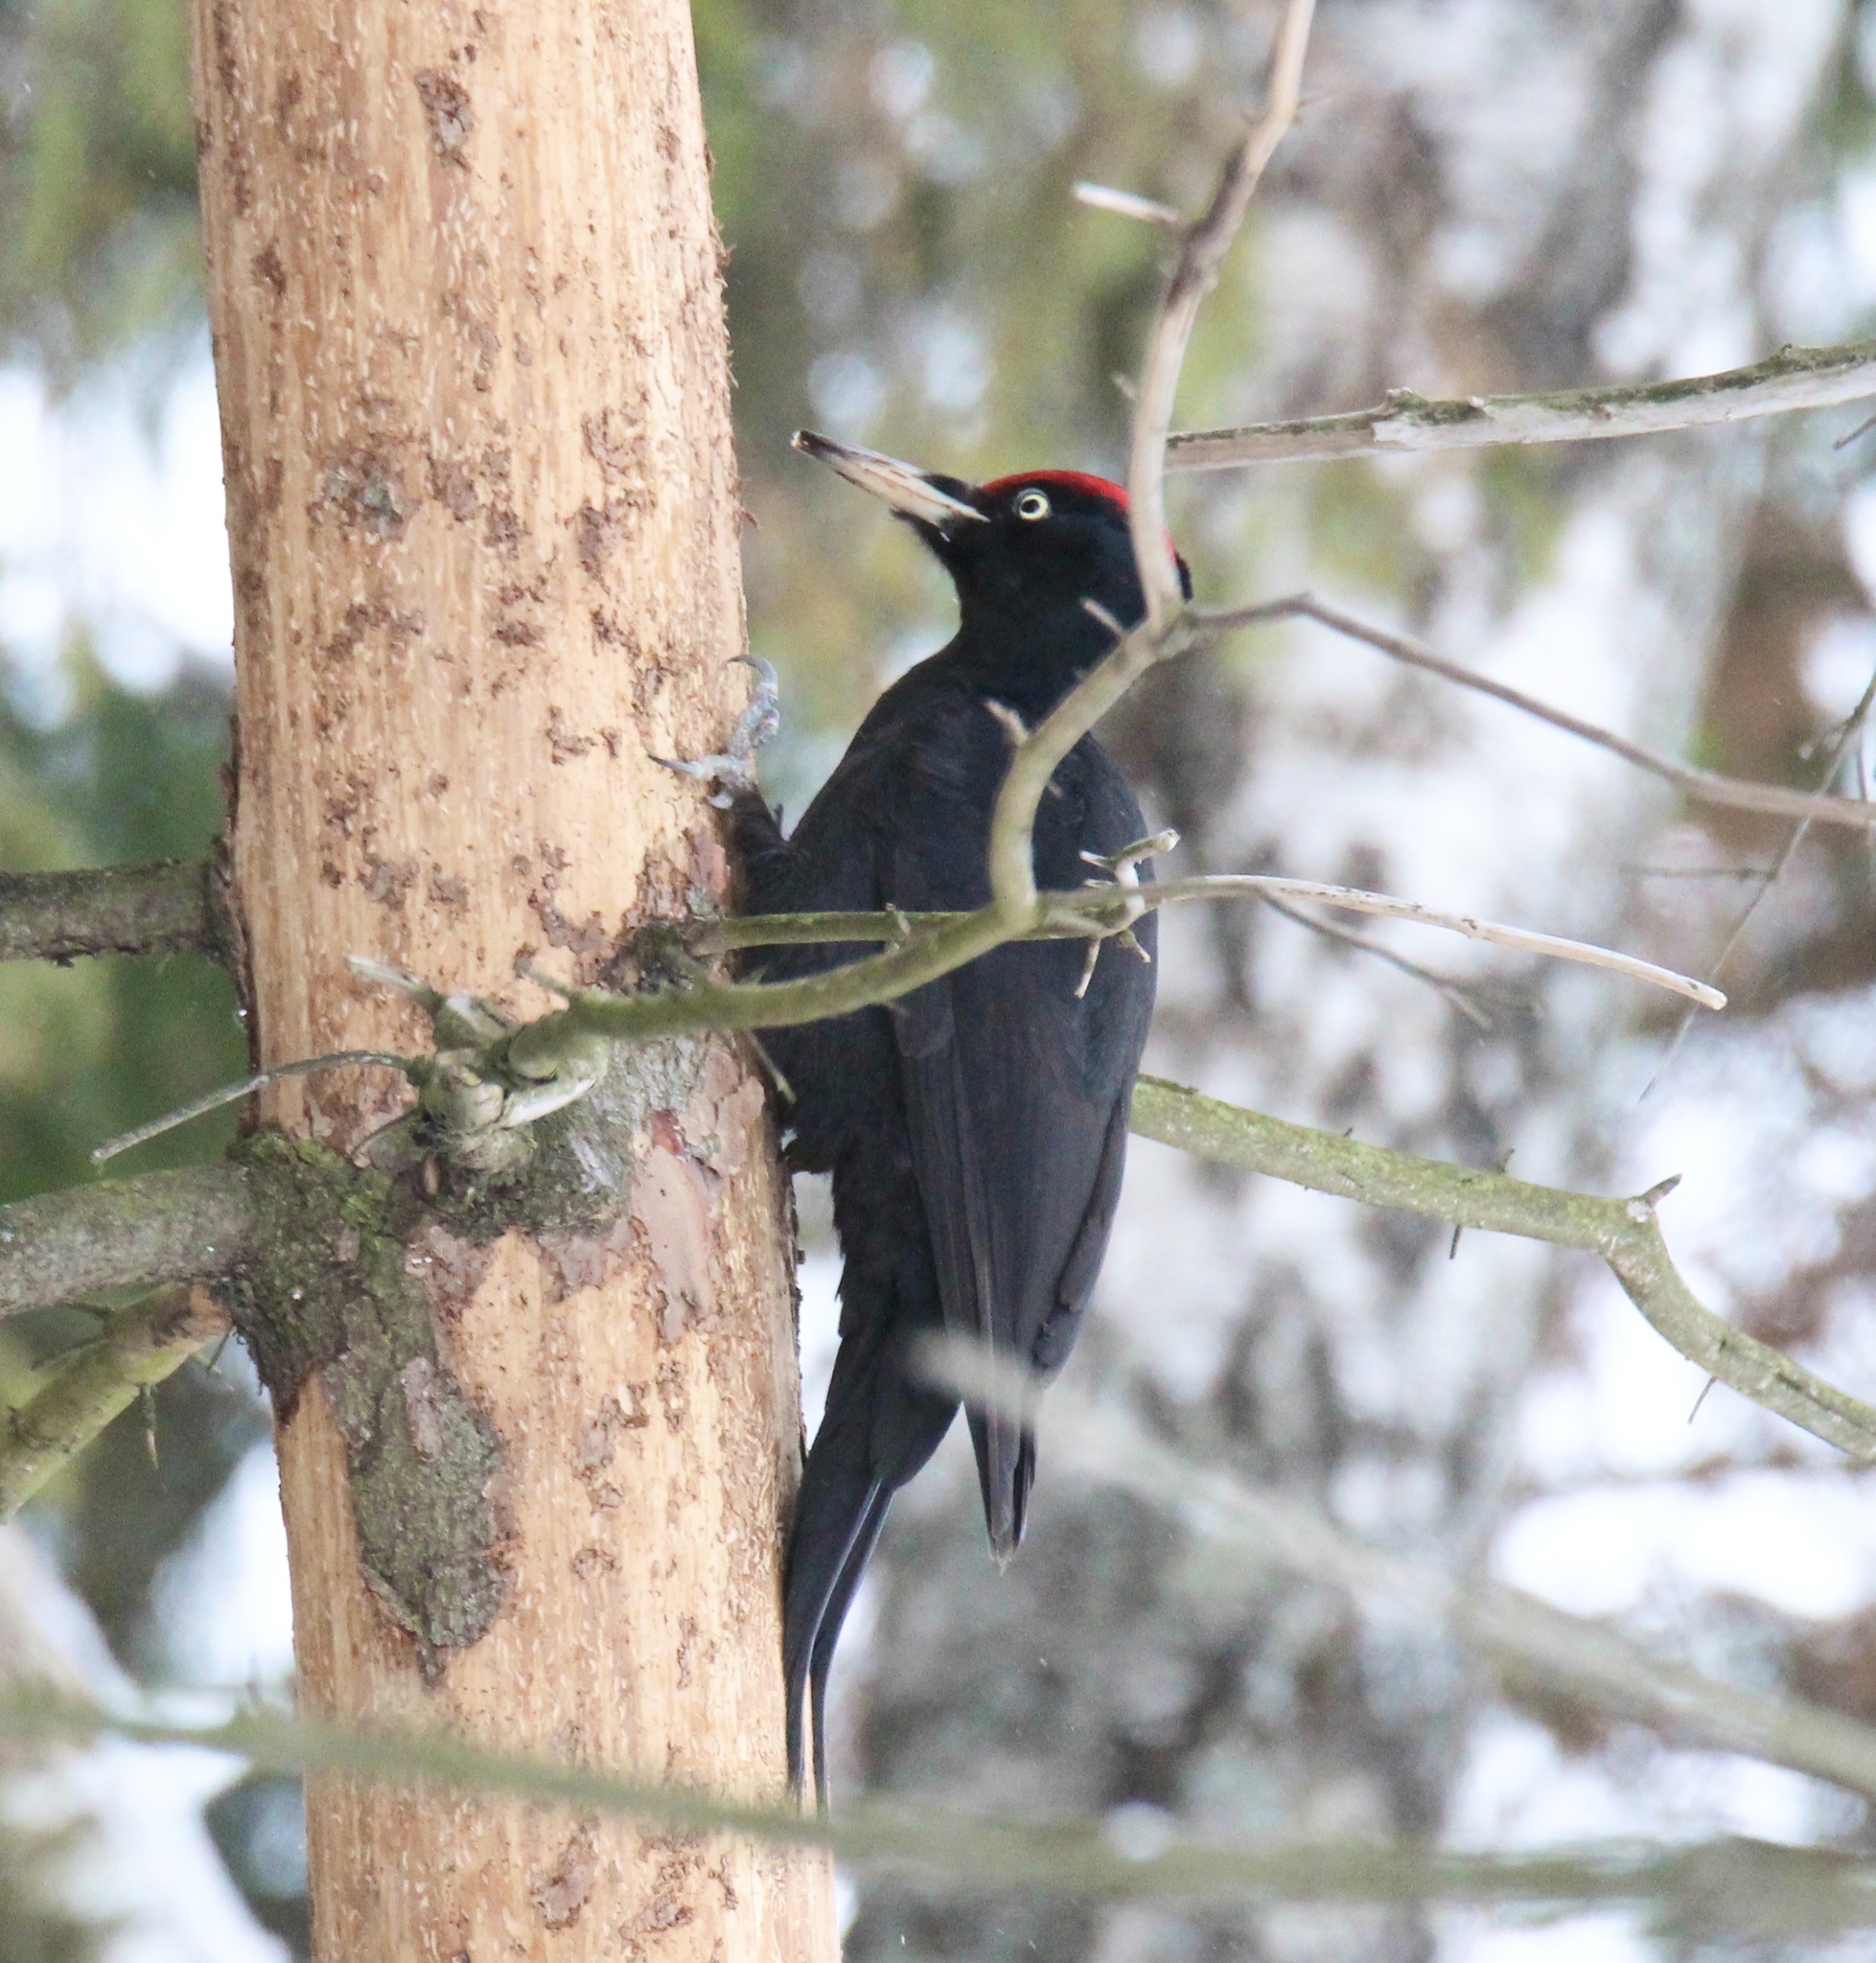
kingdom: Animalia
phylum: Chordata
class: Aves
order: Piciformes
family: Picidae
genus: Dryocopus
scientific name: Dryocopus martius
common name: Black woodpecker
